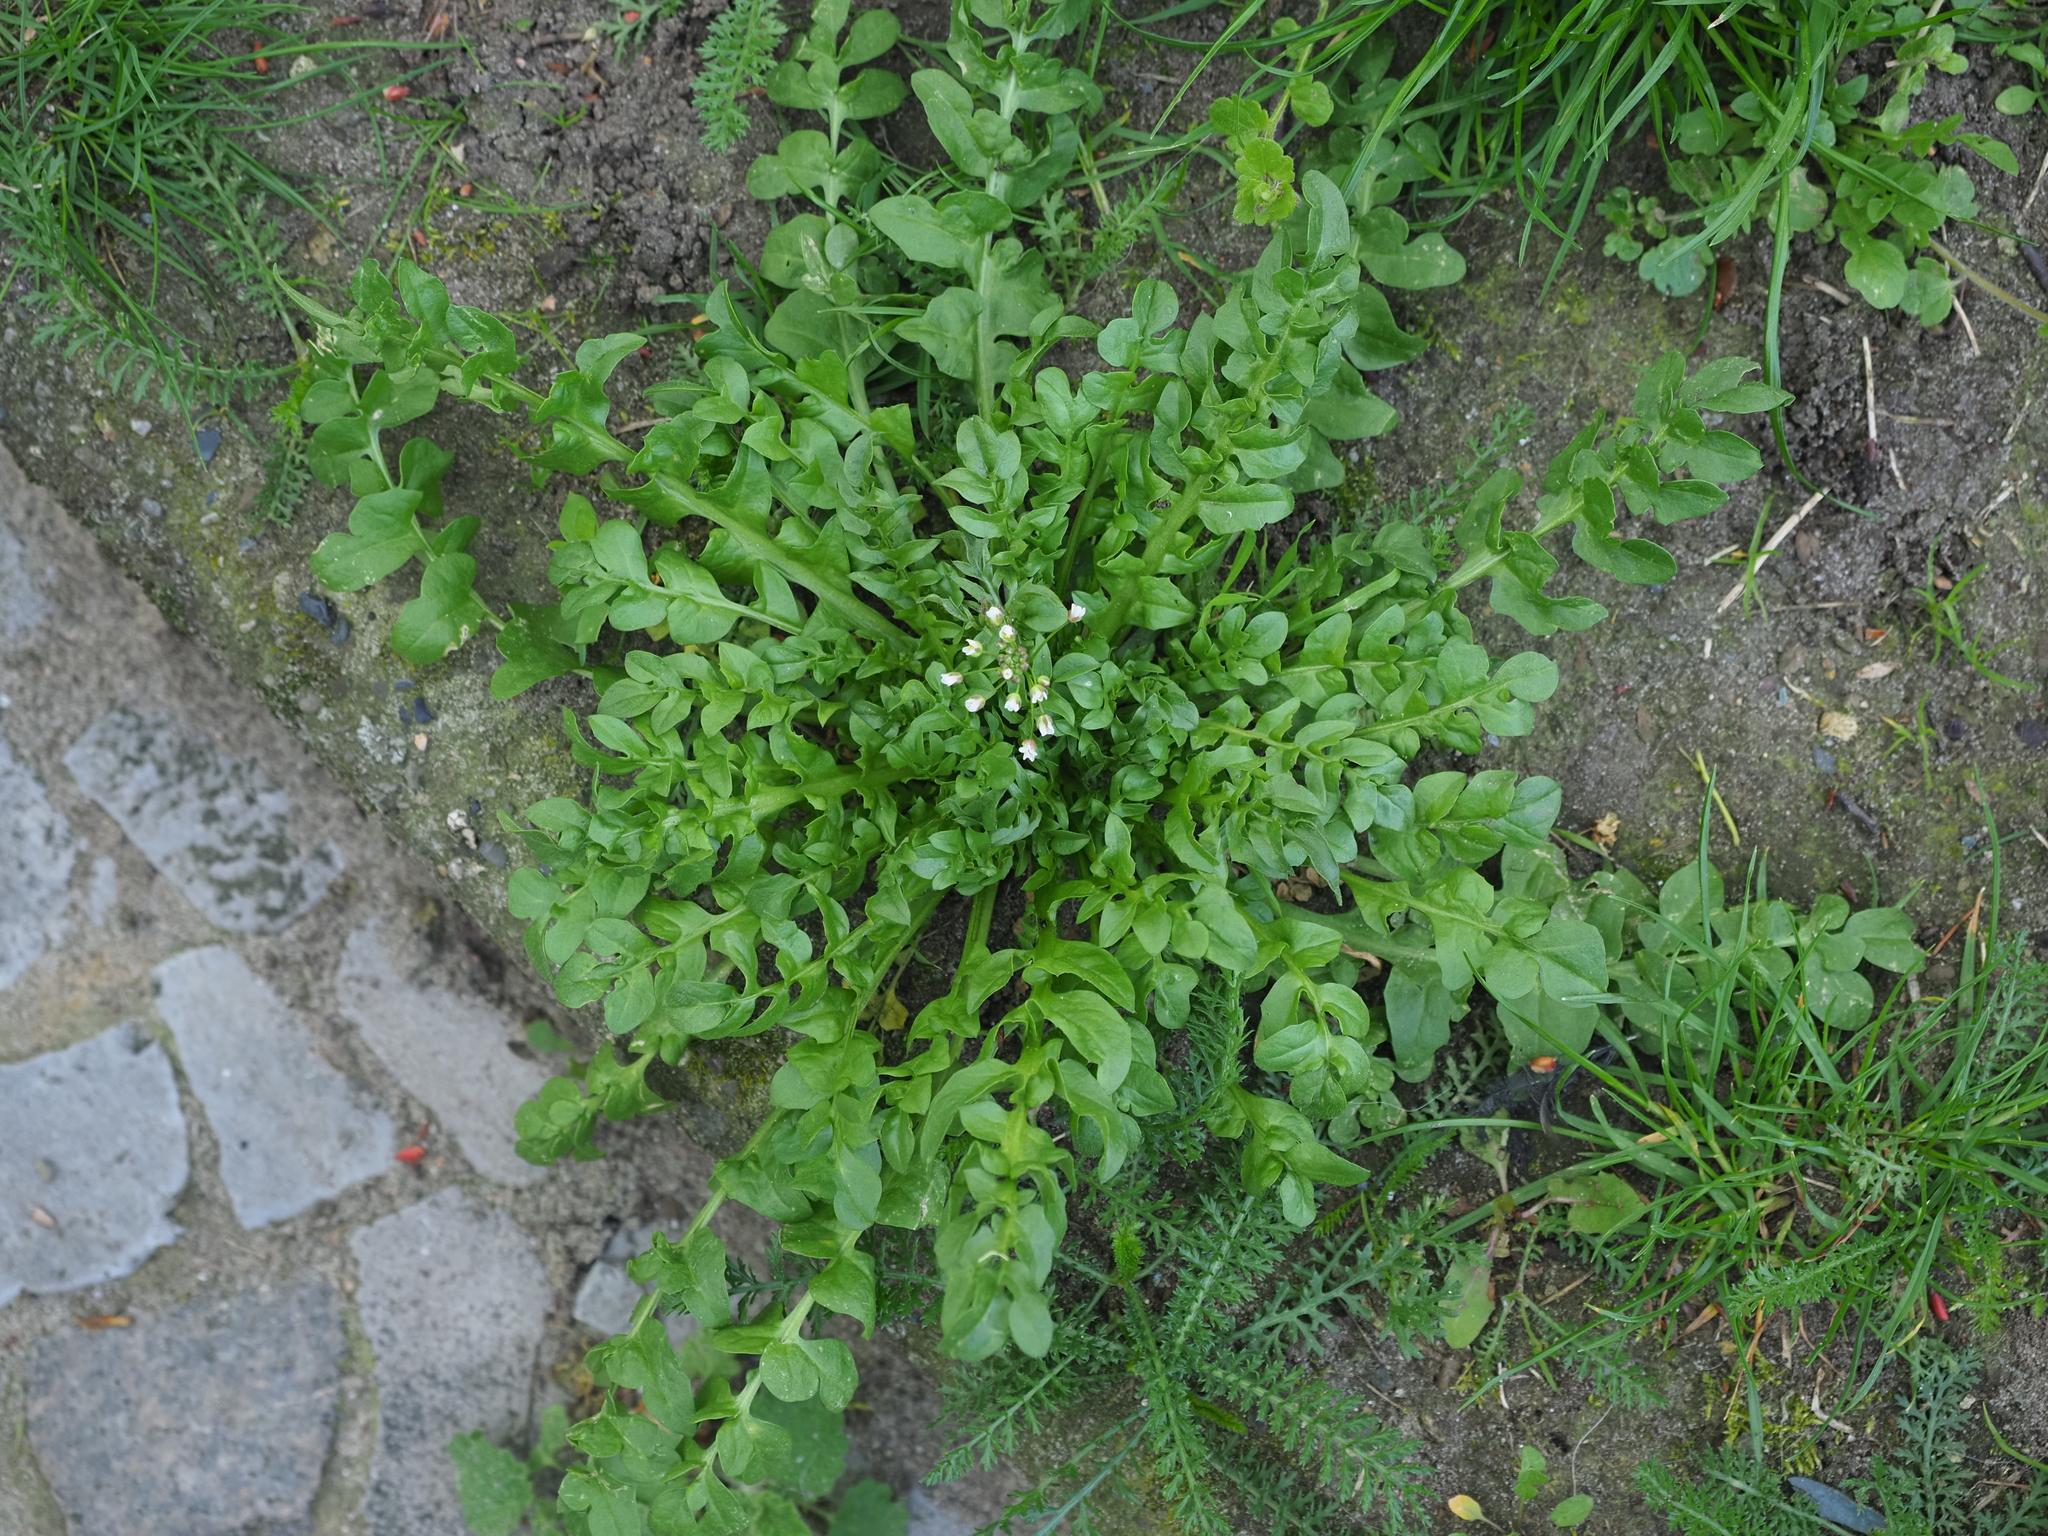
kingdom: Plantae
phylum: Tracheophyta
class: Magnoliopsida
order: Brassicales
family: Brassicaceae
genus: Capsella
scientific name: Capsella bursa-pastoris
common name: Shepherd's purse
